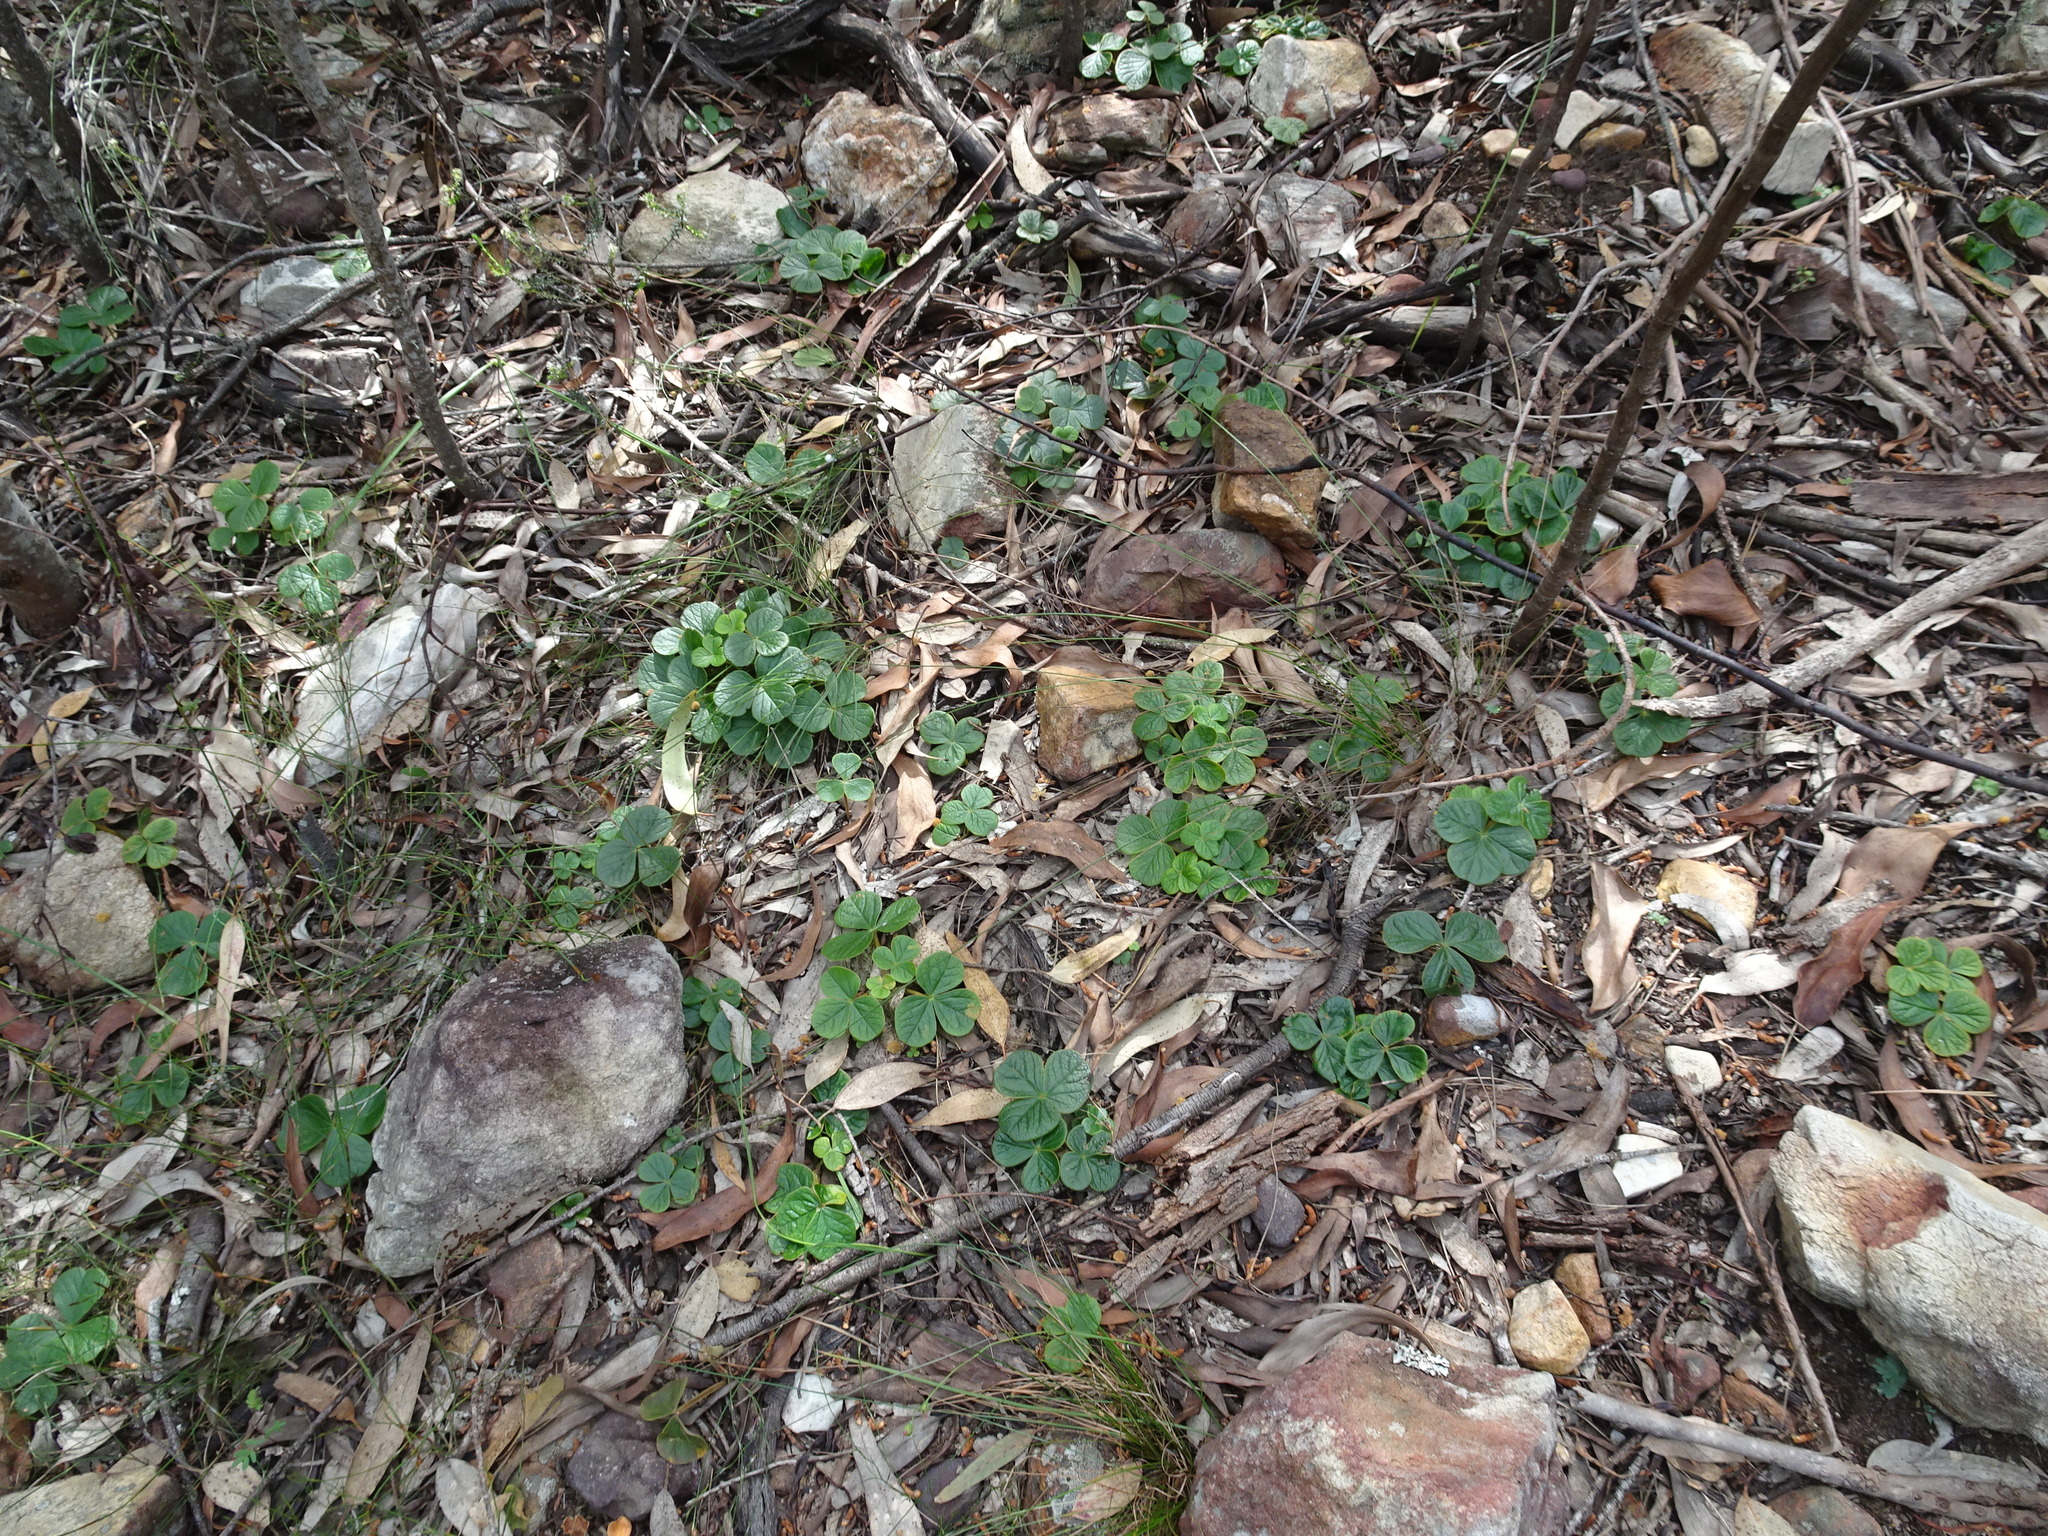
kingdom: Plantae
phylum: Tracheophyta
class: Magnoliopsida
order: Oxalidales
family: Oxalidaceae
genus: Oxalis
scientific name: Oxalis truncatula
